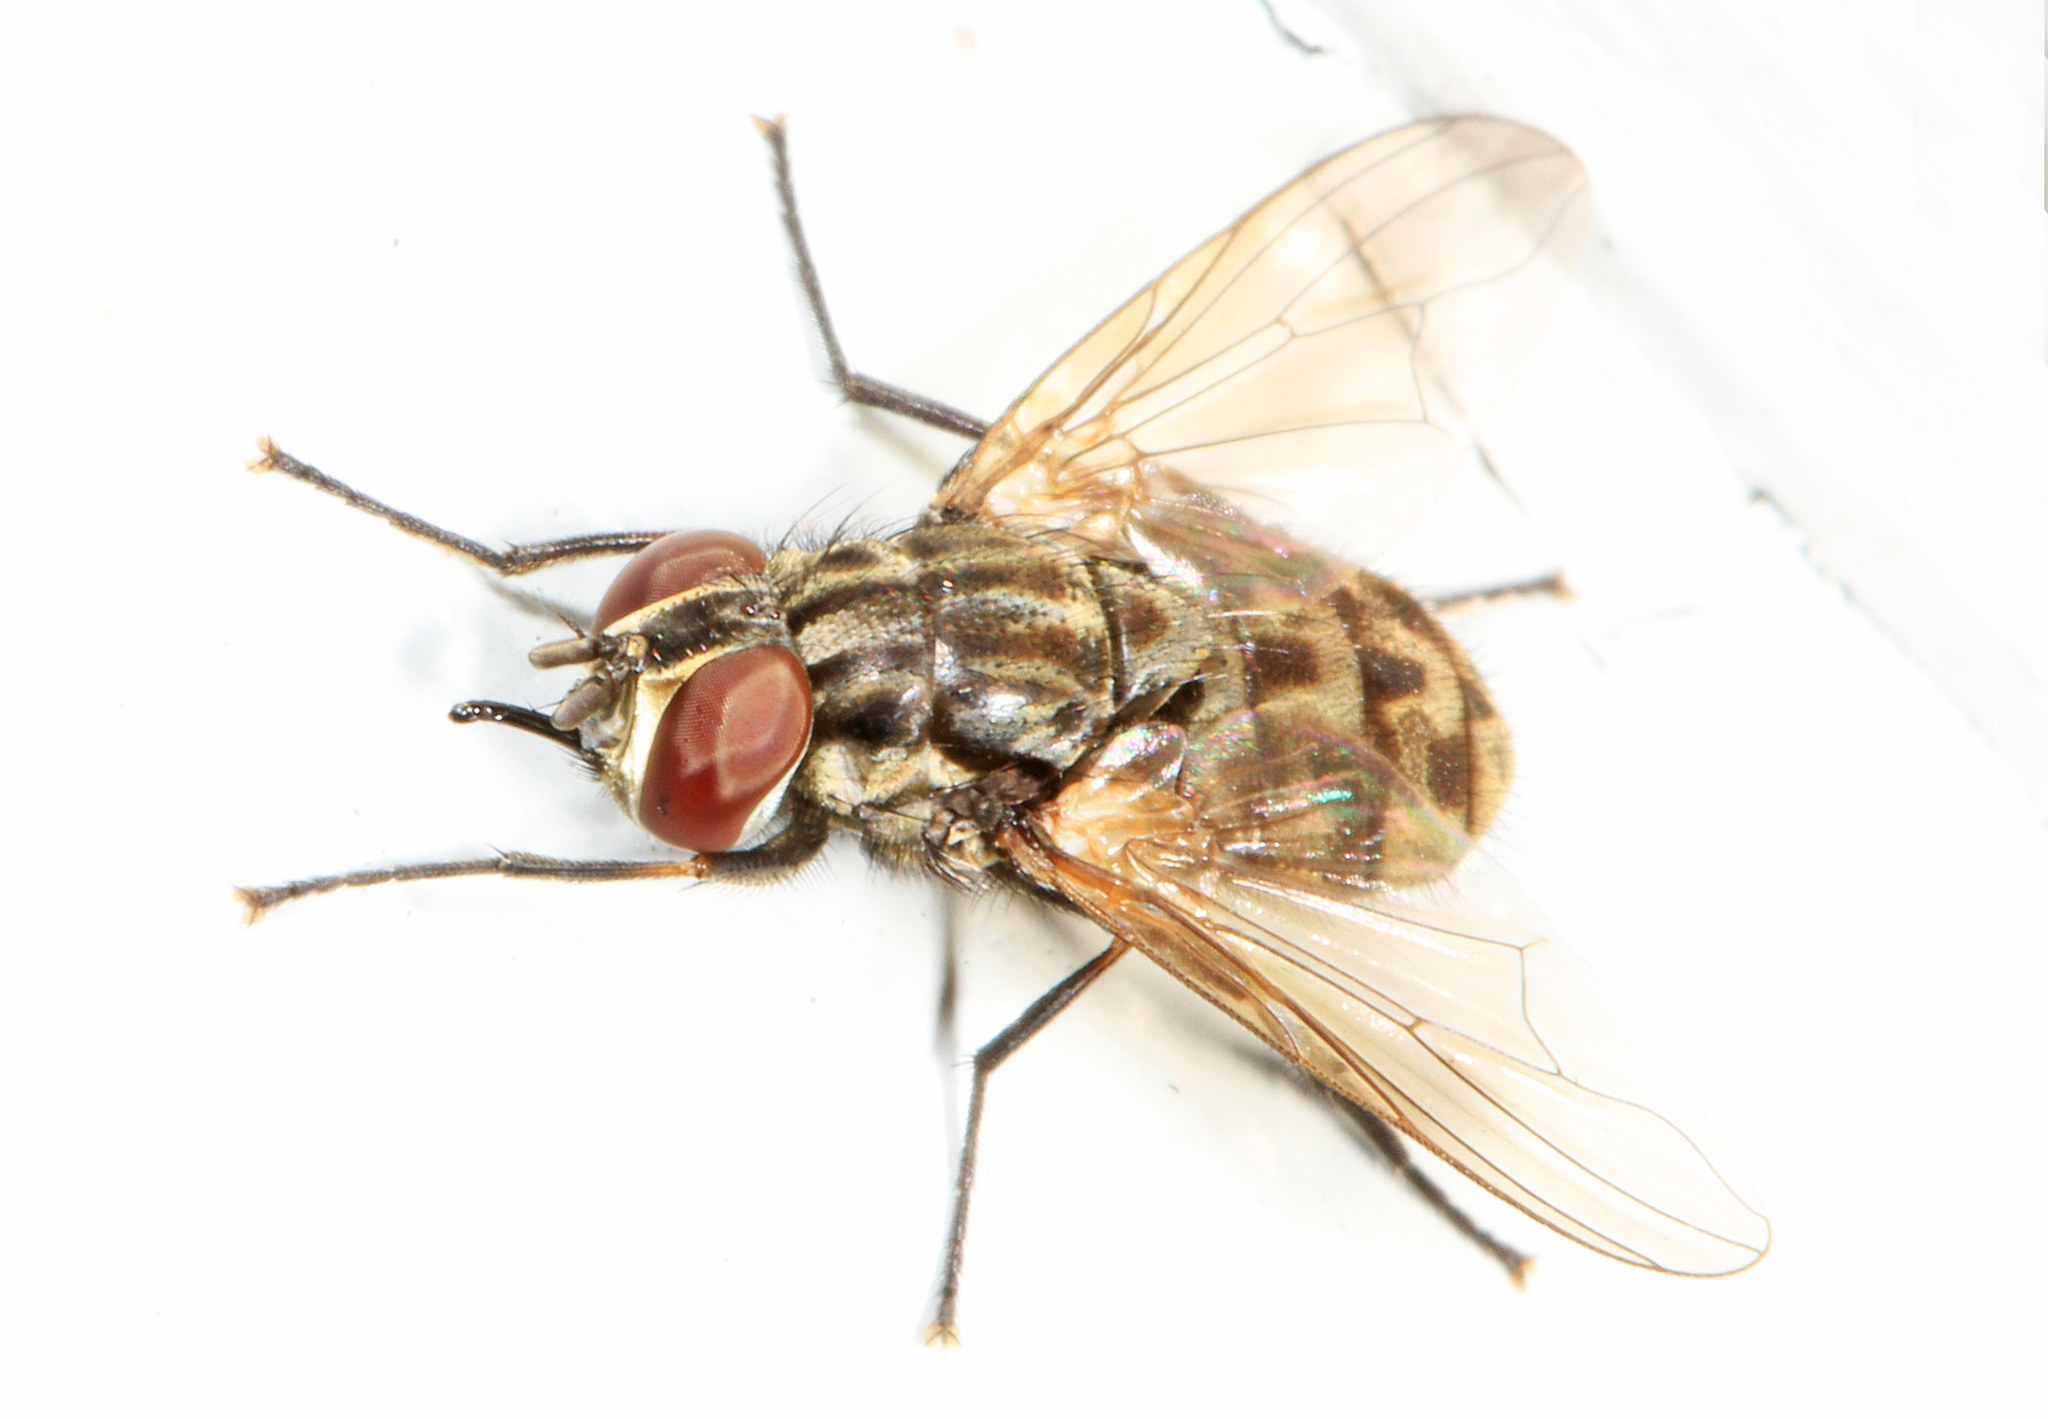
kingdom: Animalia
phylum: Arthropoda
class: Insecta
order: Diptera
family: Muscidae
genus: Stomoxys
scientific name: Stomoxys calcitrans
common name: Stable fly
